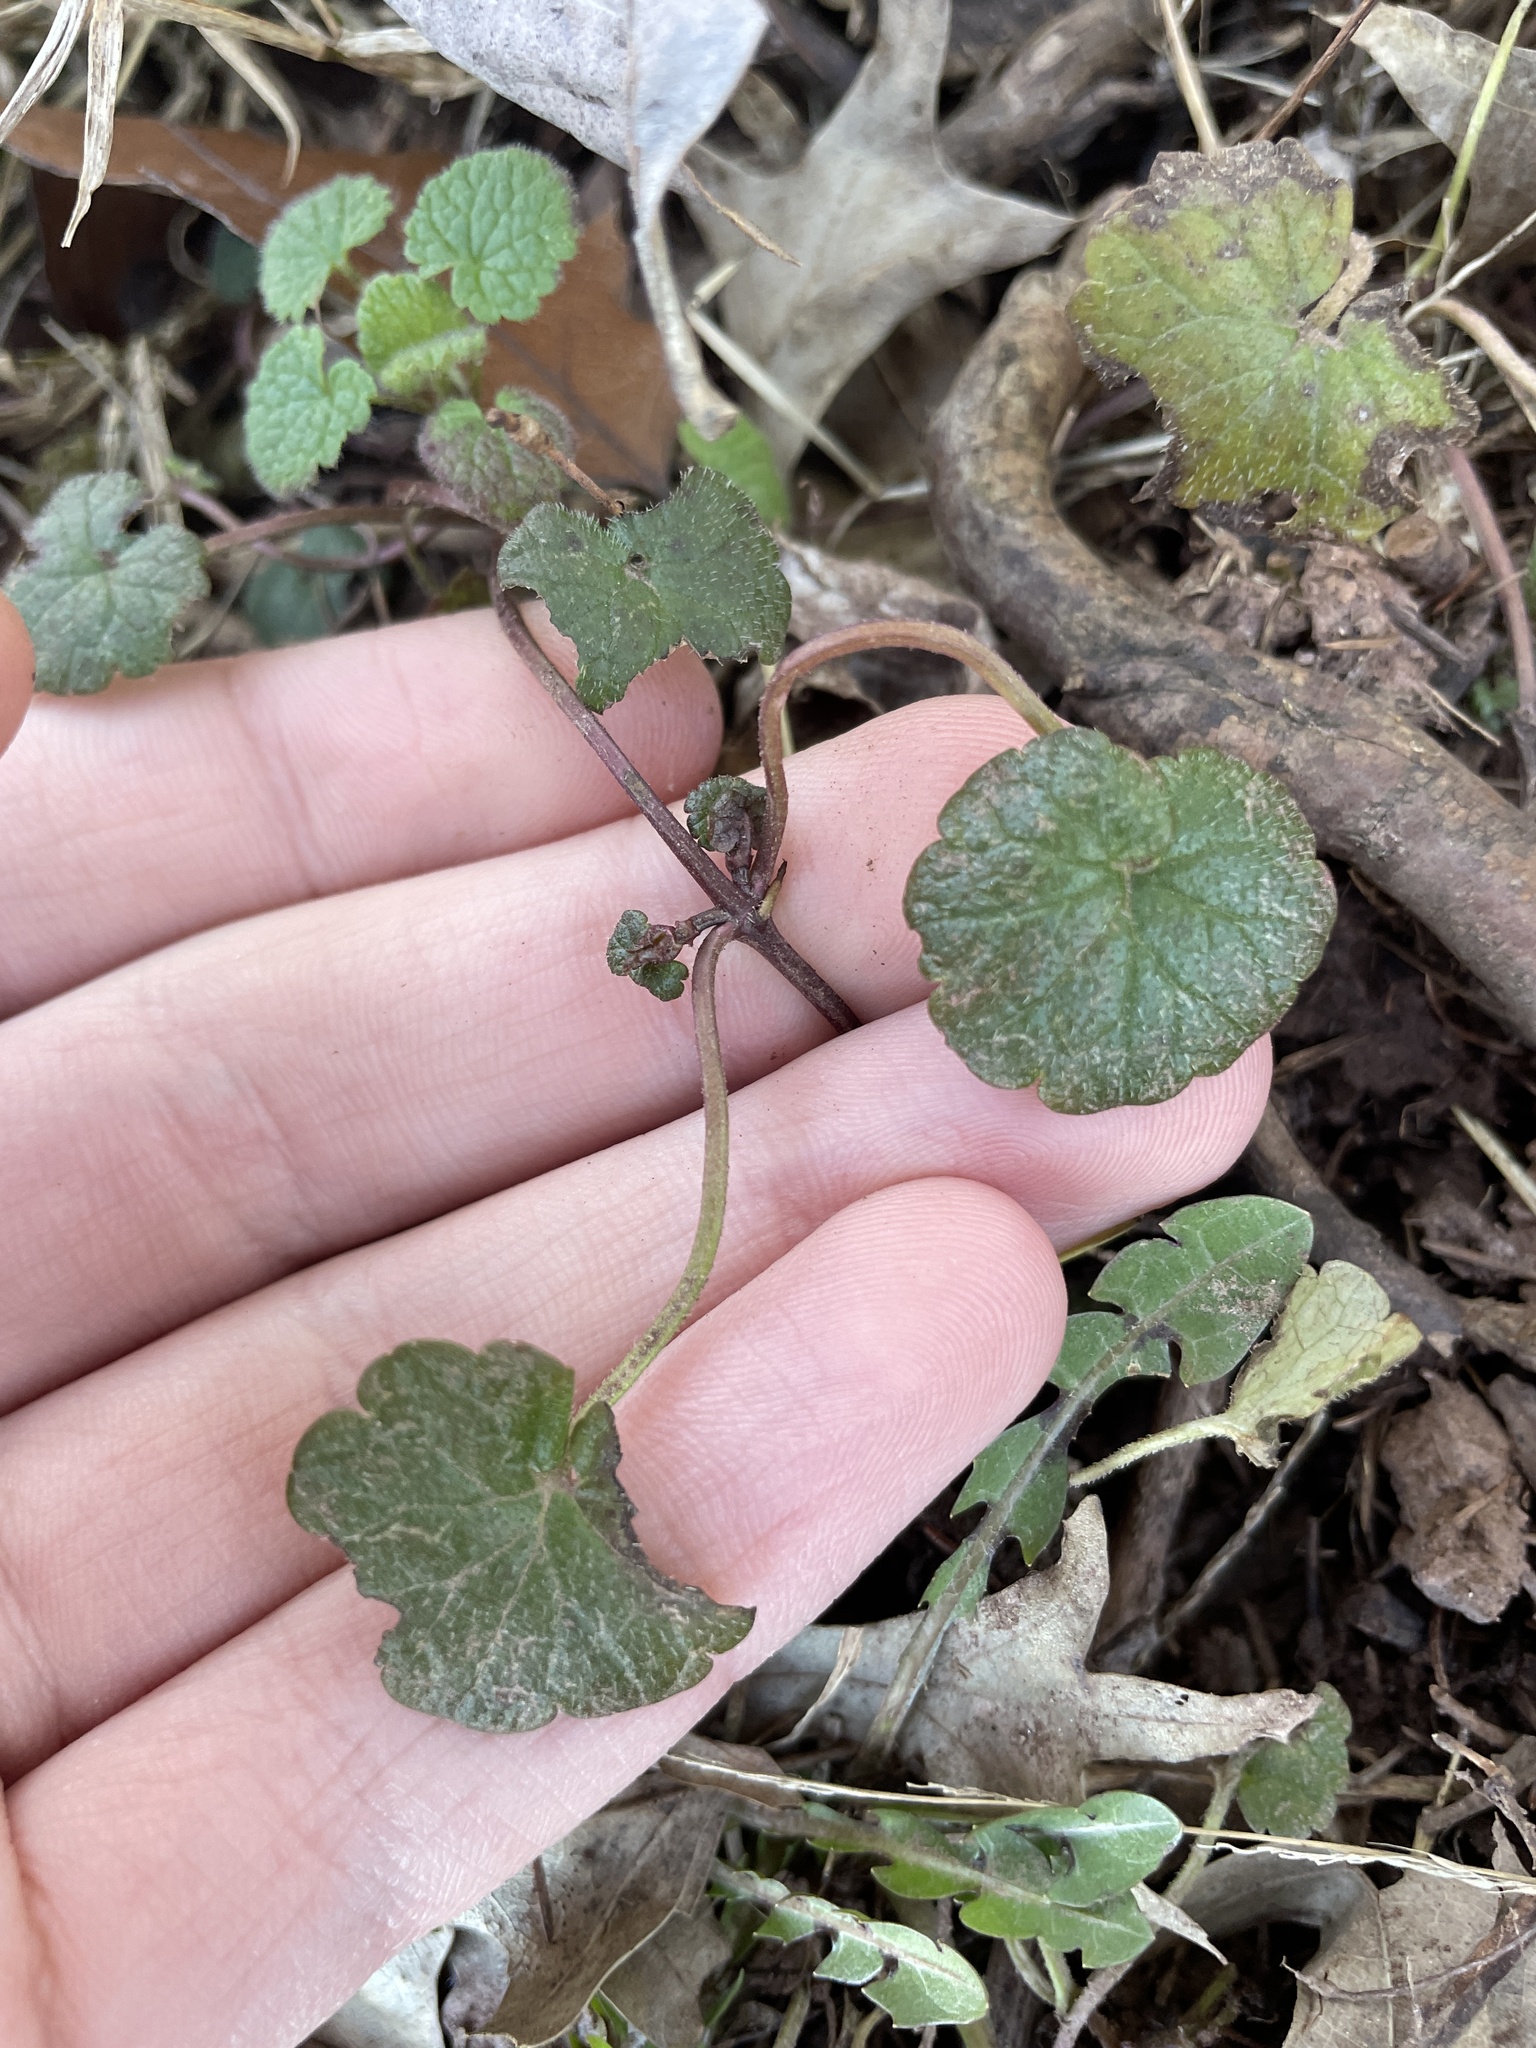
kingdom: Plantae
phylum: Tracheophyta
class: Magnoliopsida
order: Lamiales
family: Lamiaceae
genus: Glechoma
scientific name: Glechoma hederacea
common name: Ground ivy
